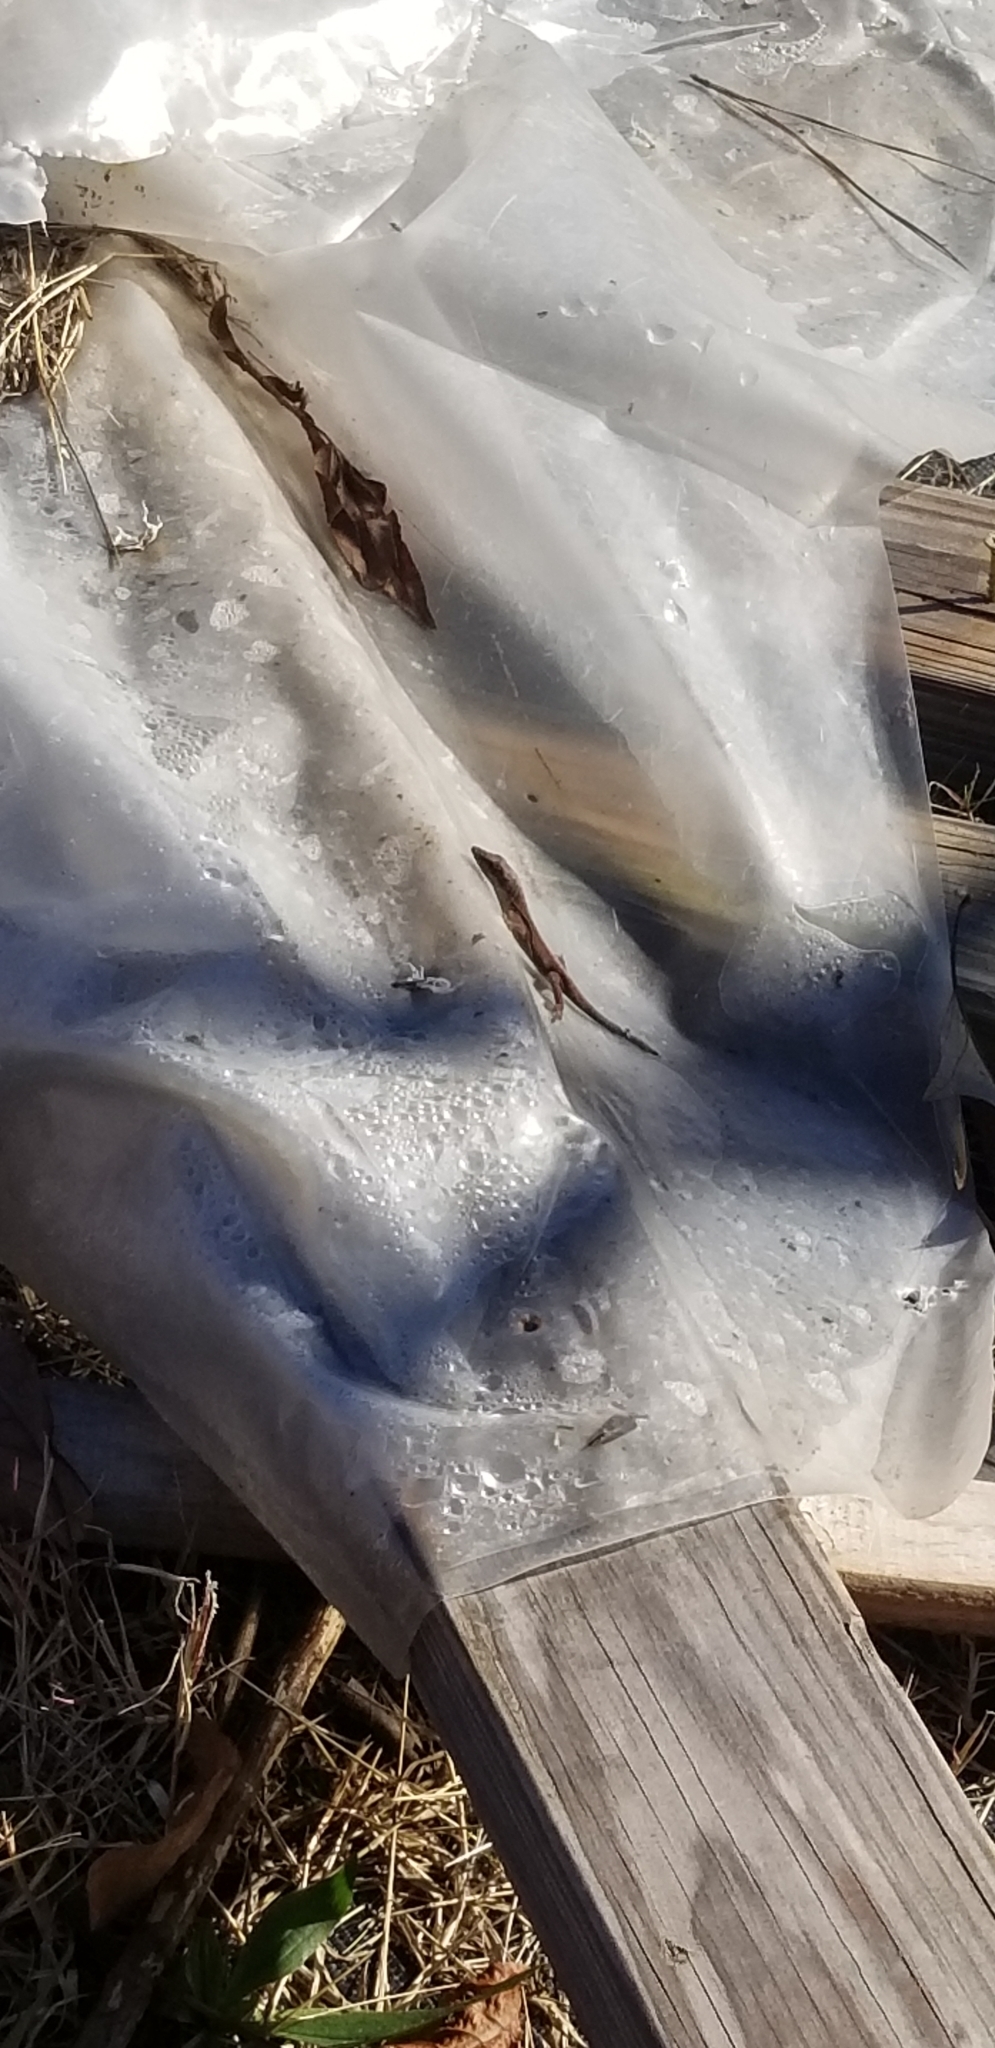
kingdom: Animalia
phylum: Chordata
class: Squamata
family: Dactyloidae
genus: Anolis
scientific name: Anolis carolinensis
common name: Green anole
